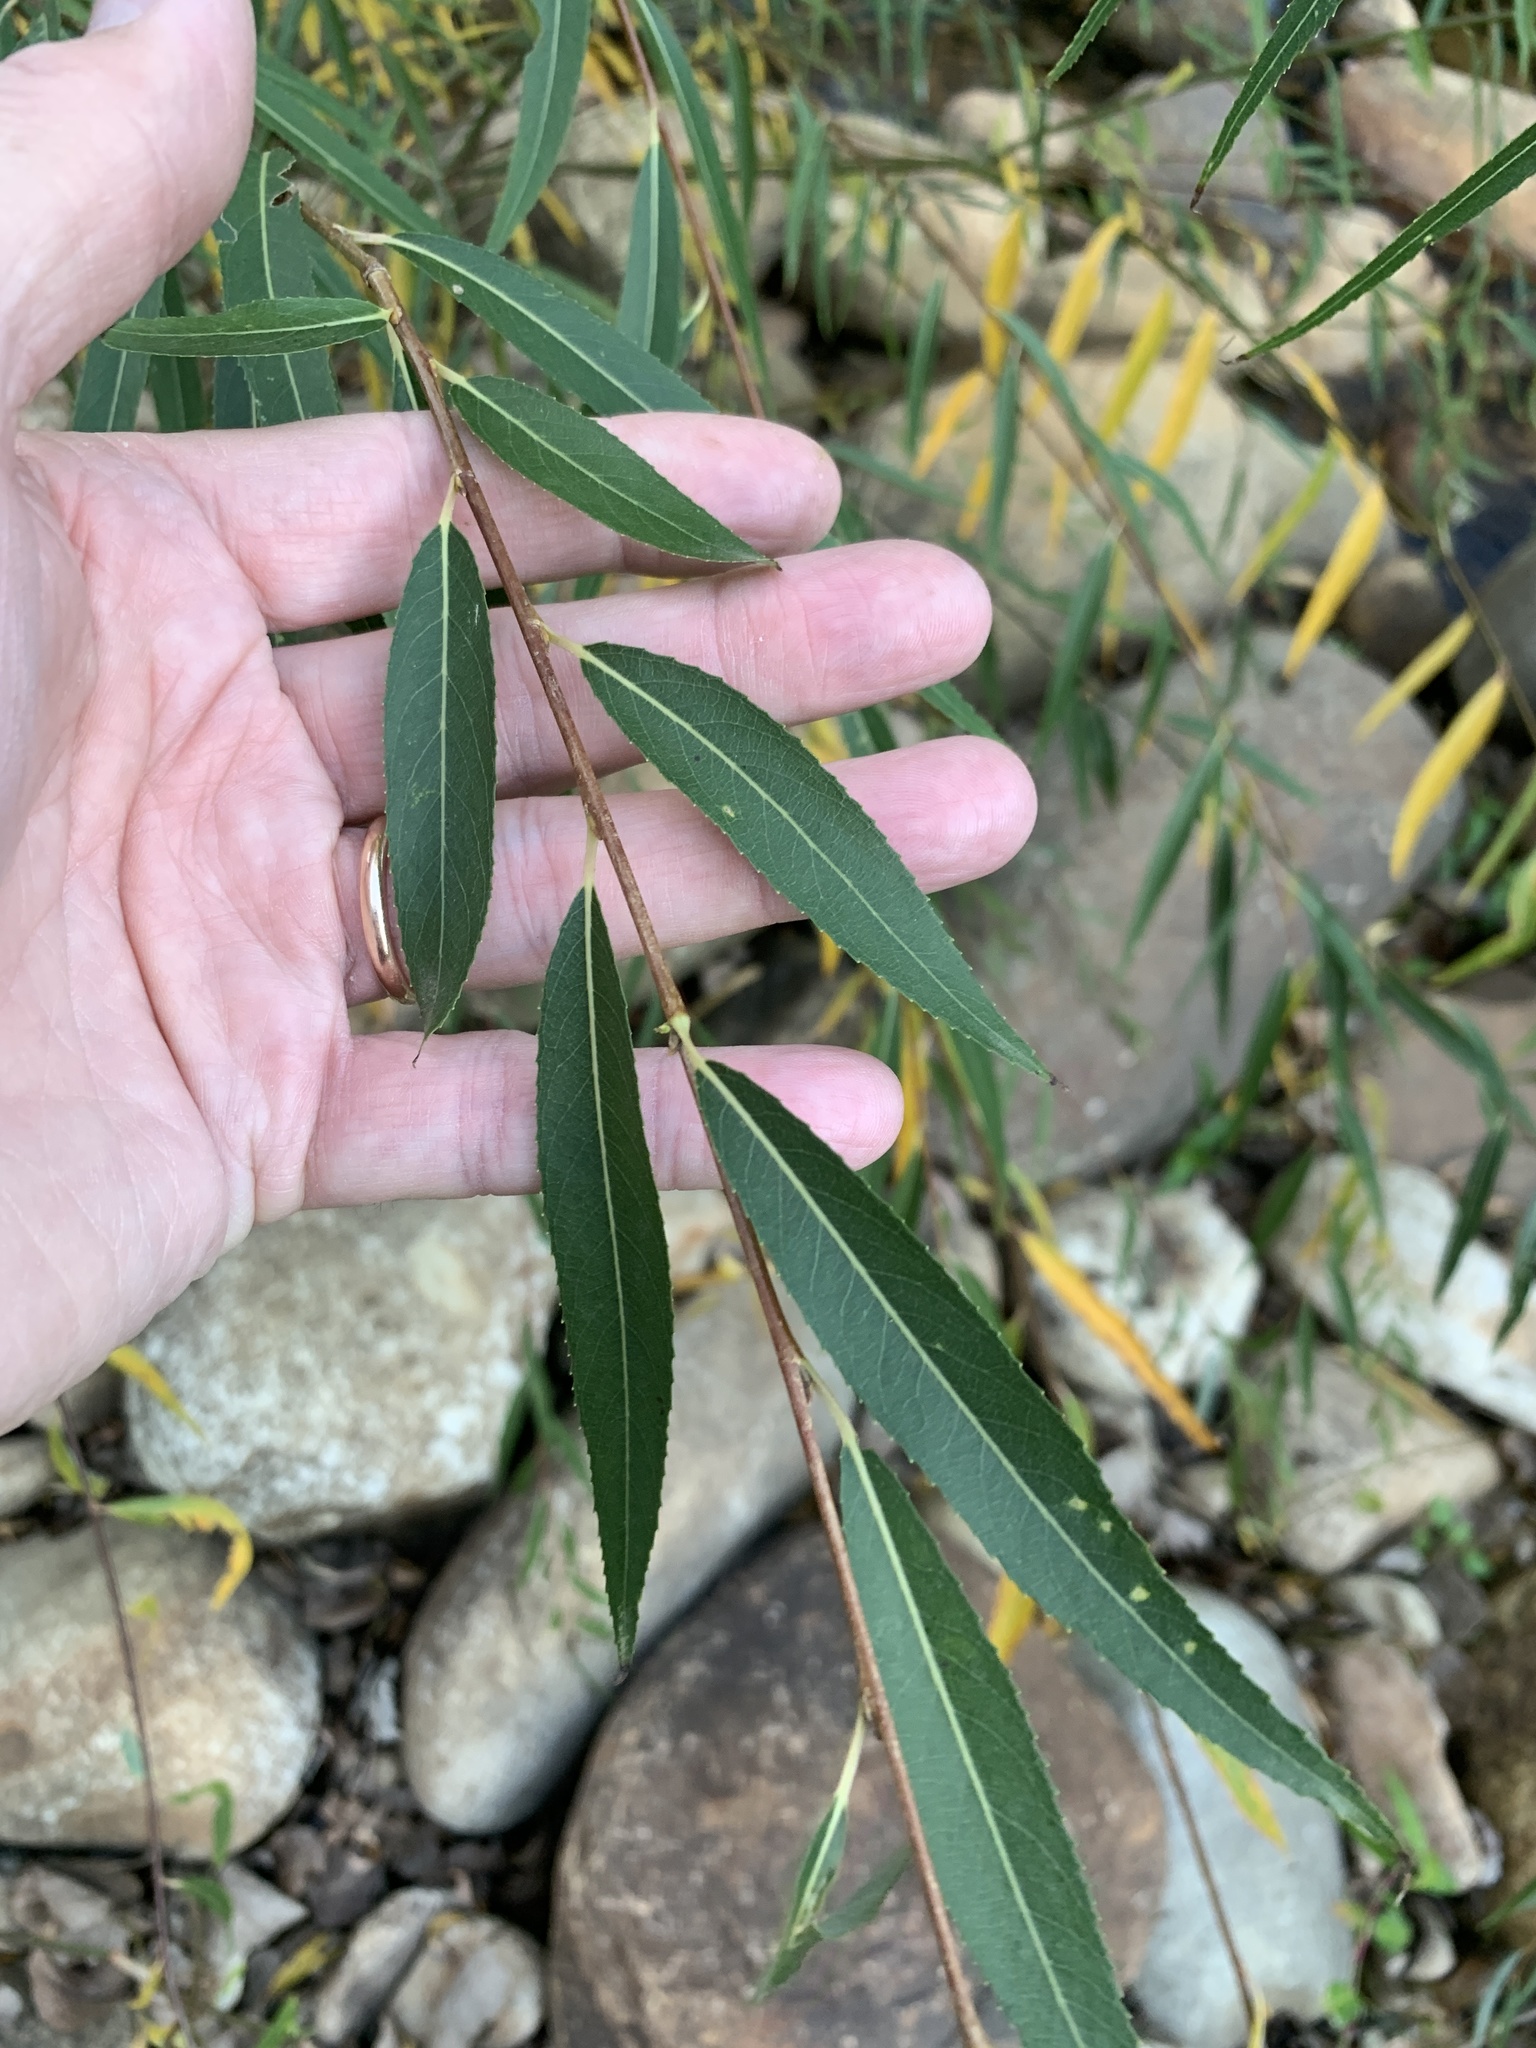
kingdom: Plantae
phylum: Tracheophyta
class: Magnoliopsida
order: Malpighiales
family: Salicaceae
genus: Salix
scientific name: Salix mucronata
